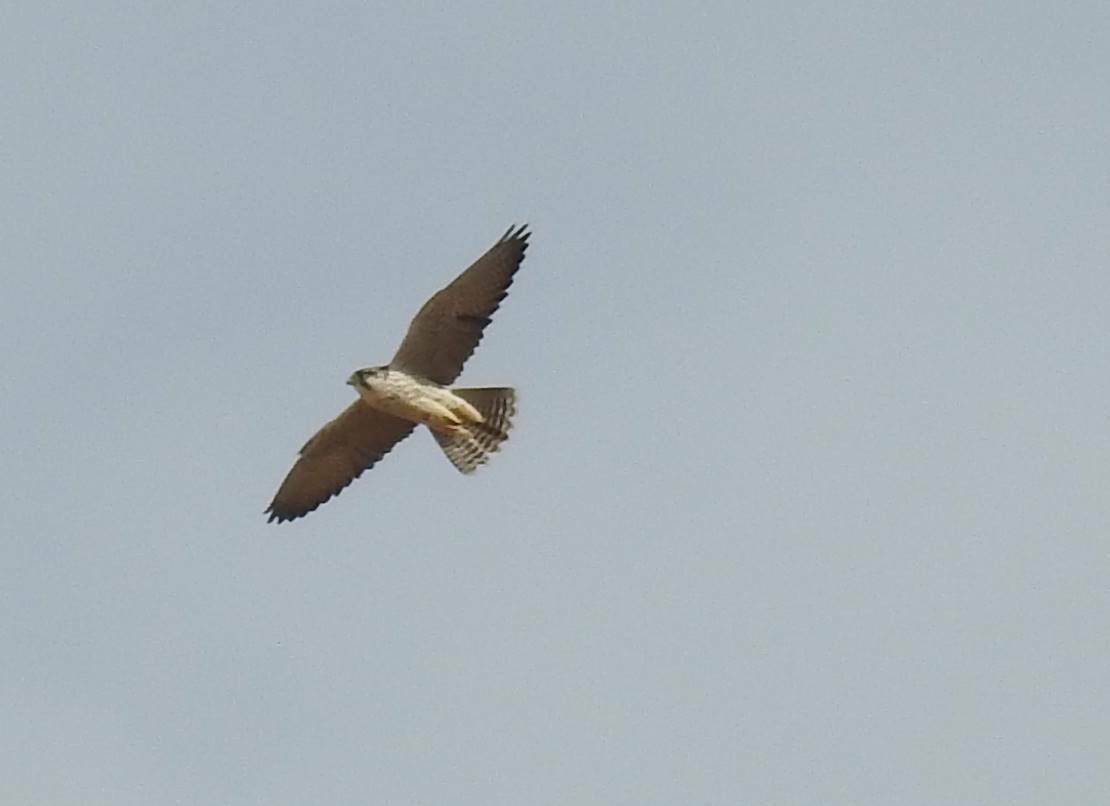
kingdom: Animalia
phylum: Chordata
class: Aves
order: Falconiformes
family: Falconidae
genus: Falco
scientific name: Falco biarmicus
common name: Lanner falcon
